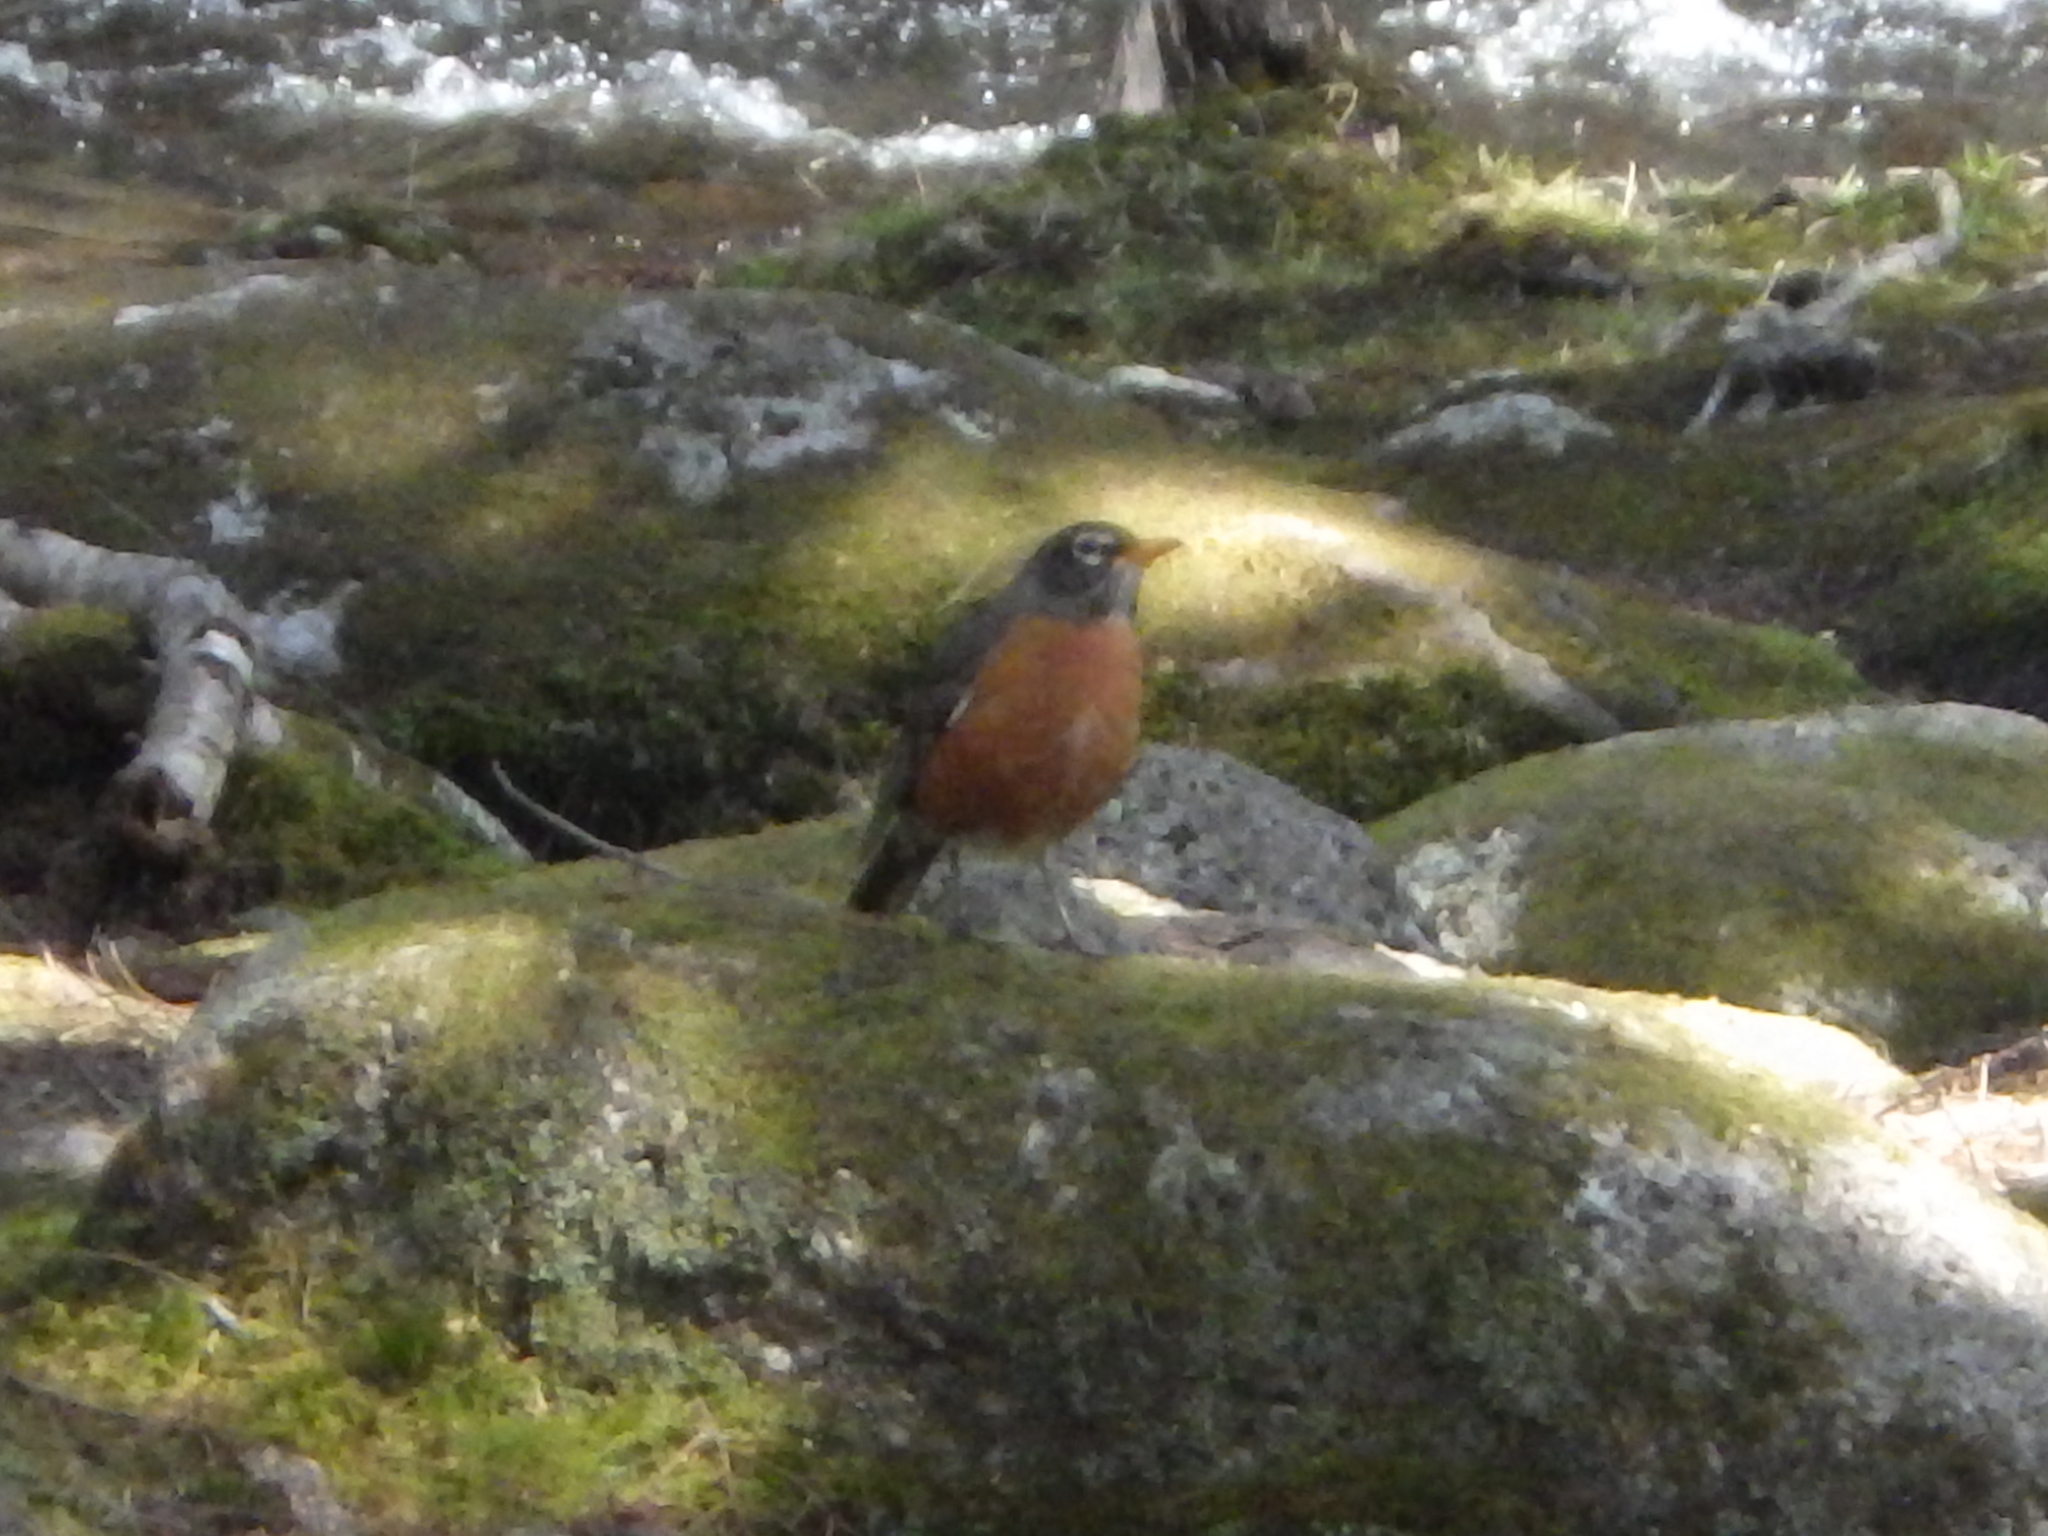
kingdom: Animalia
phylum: Chordata
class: Aves
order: Passeriformes
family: Turdidae
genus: Turdus
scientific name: Turdus migratorius
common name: American robin
